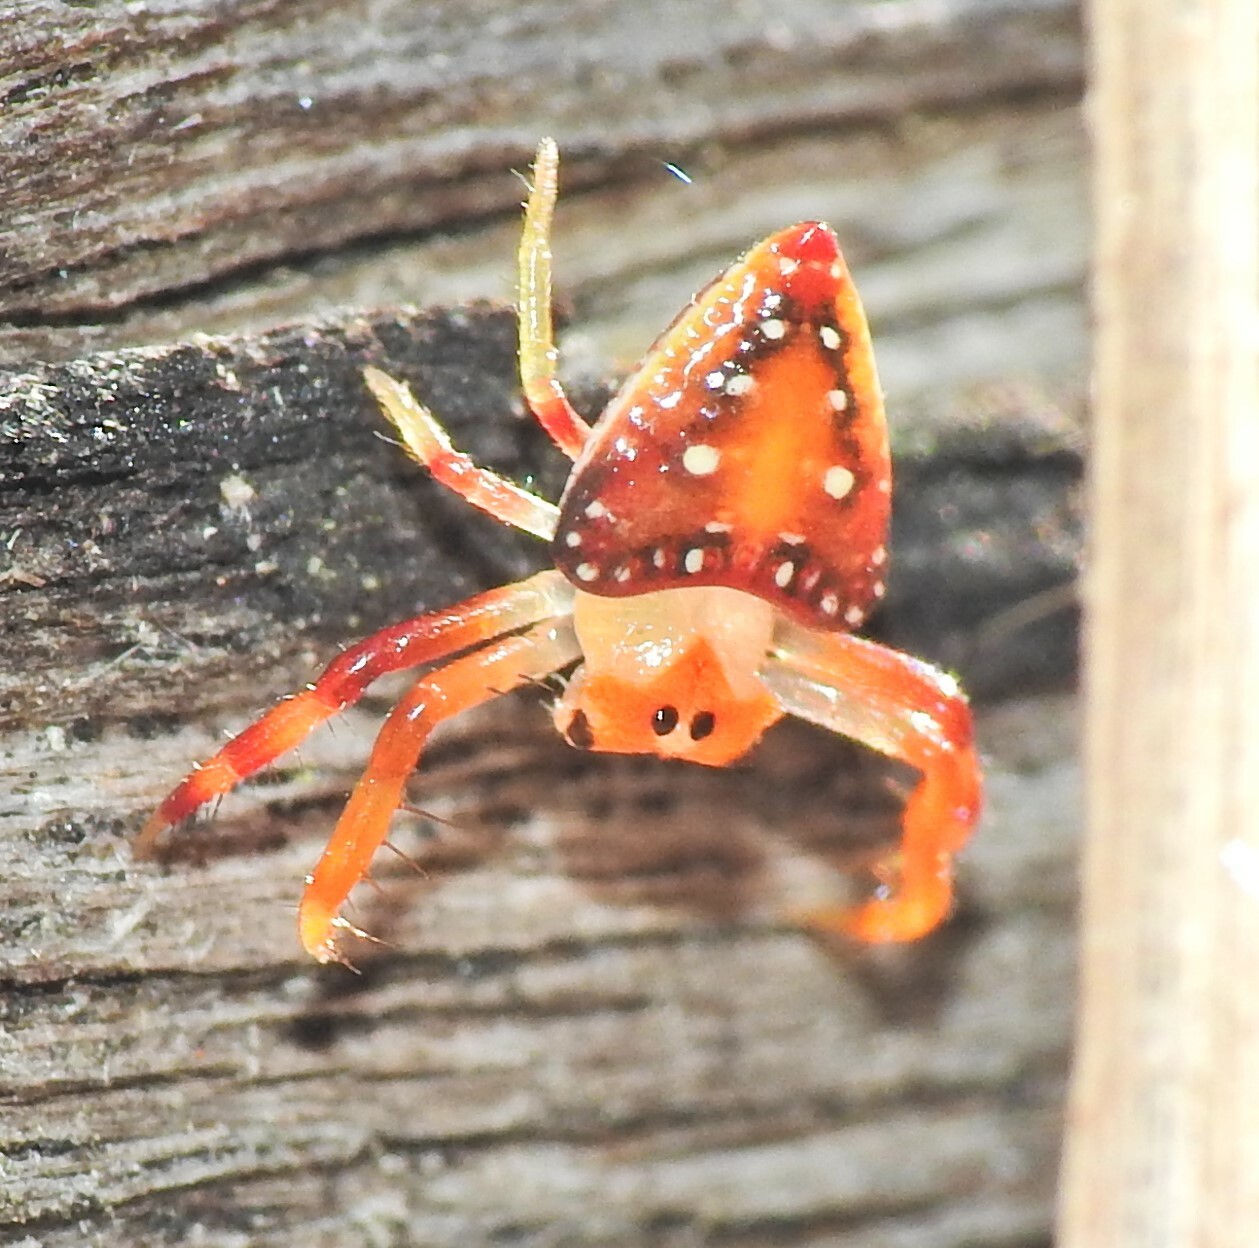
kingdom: Animalia
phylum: Arthropoda
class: Arachnida
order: Araneae
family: Arkyidae
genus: Arkys
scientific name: Arkys lancearius
